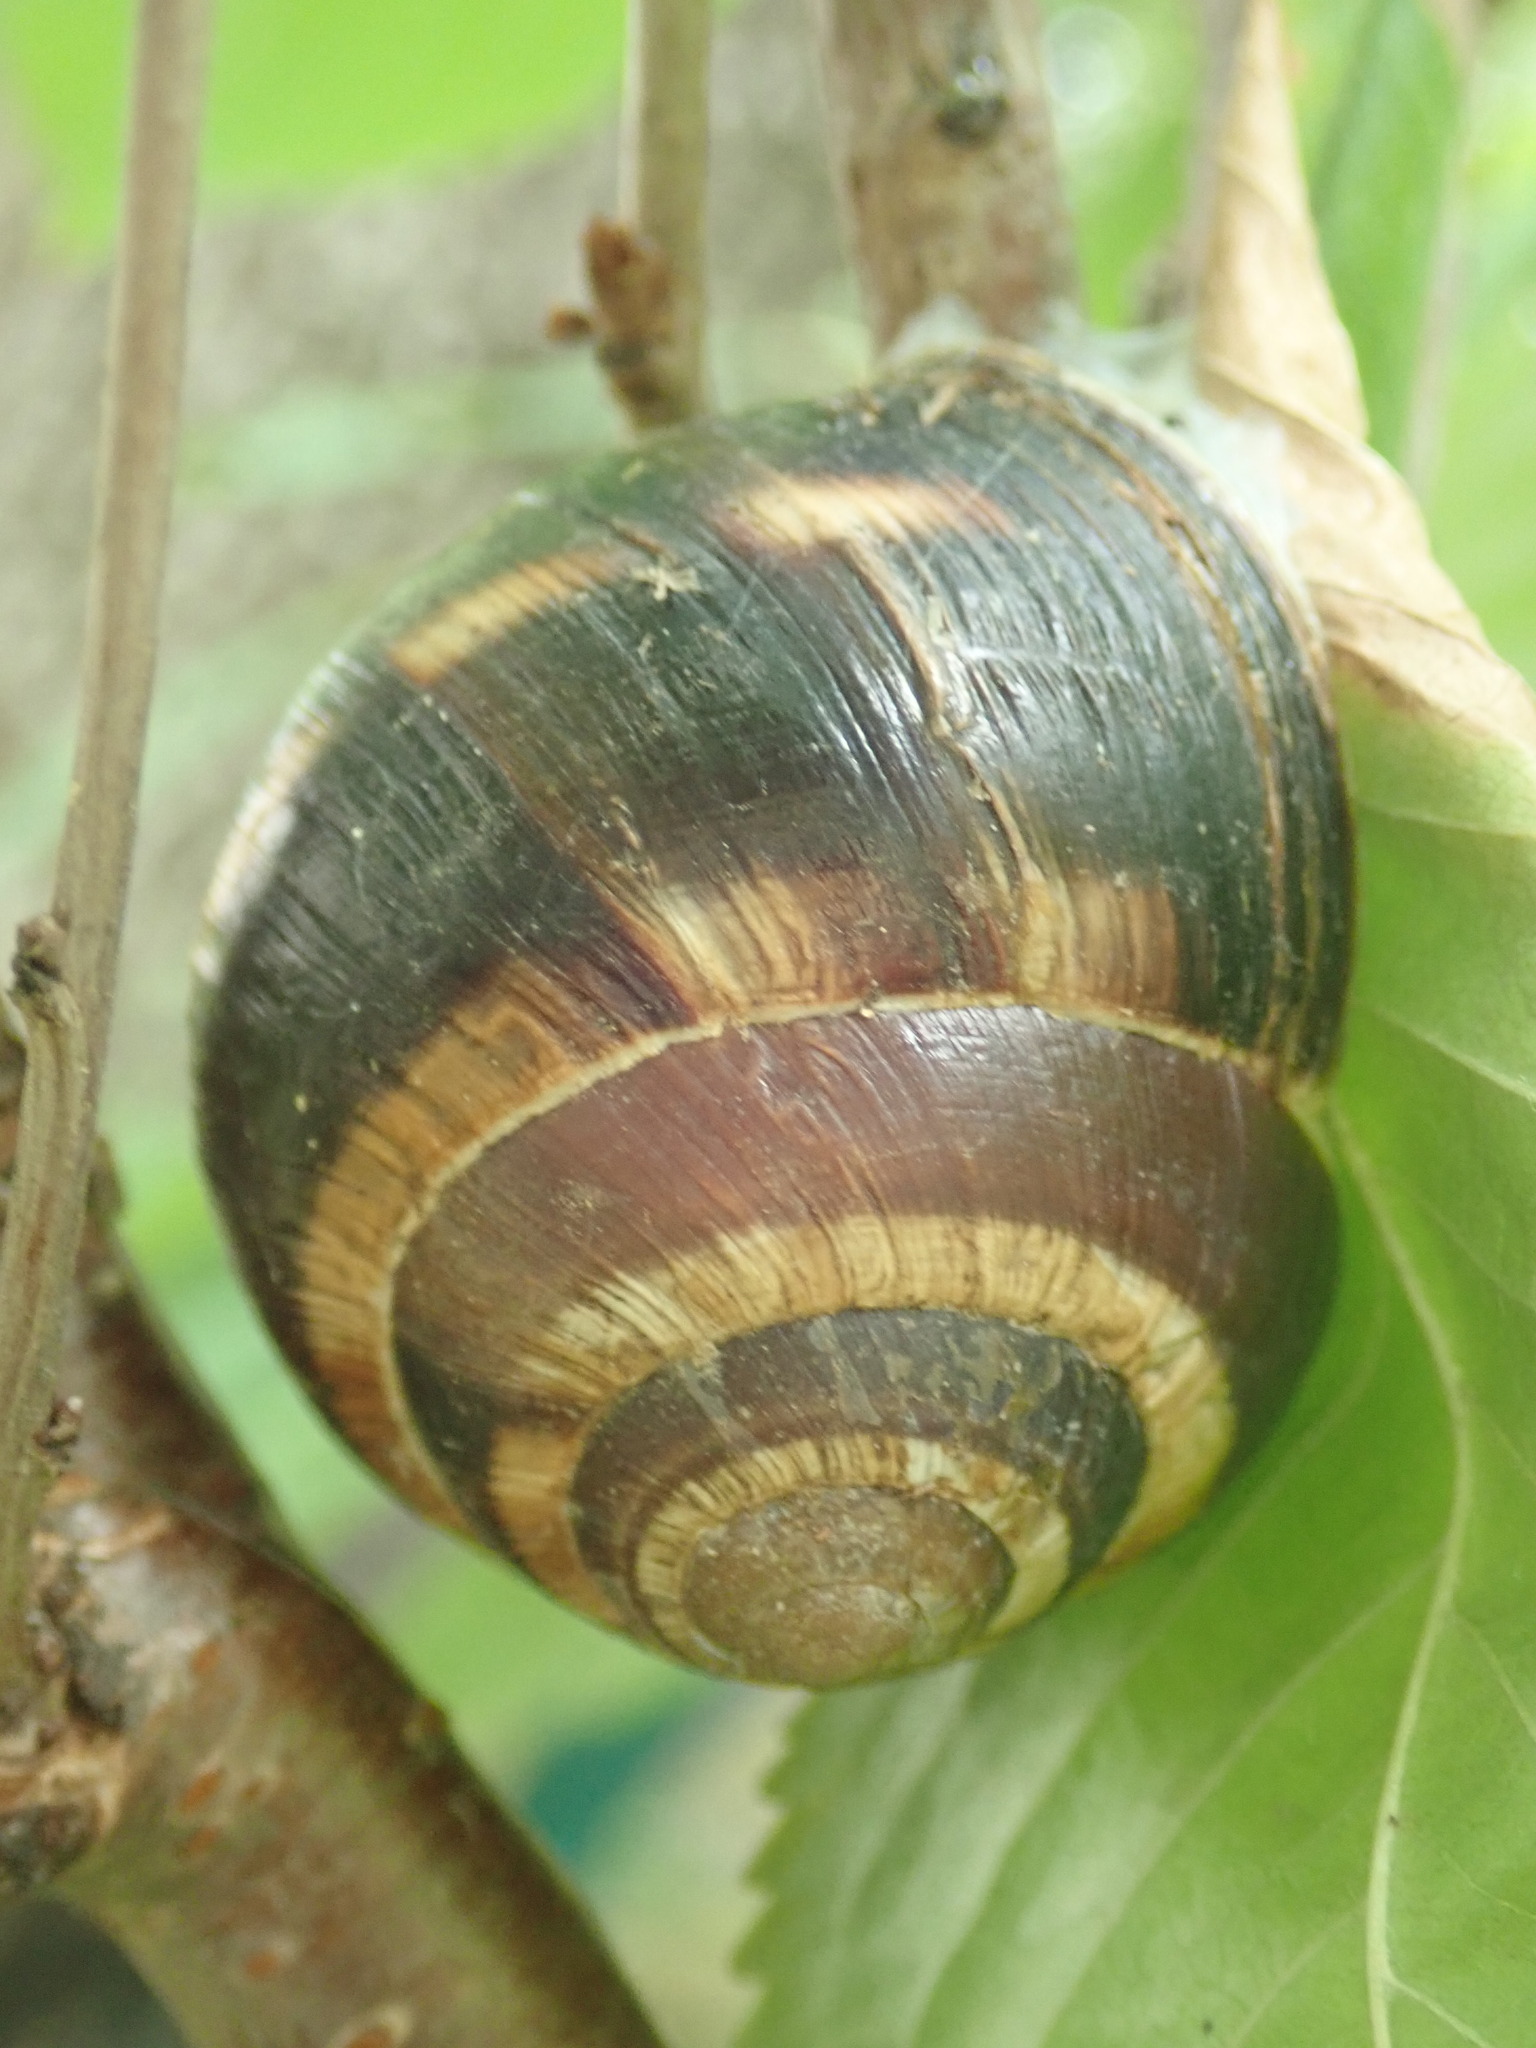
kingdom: Animalia
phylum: Mollusca
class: Gastropoda
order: Stylommatophora
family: Helicidae
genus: Helix
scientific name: Helix lucorum
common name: Turkish snail
